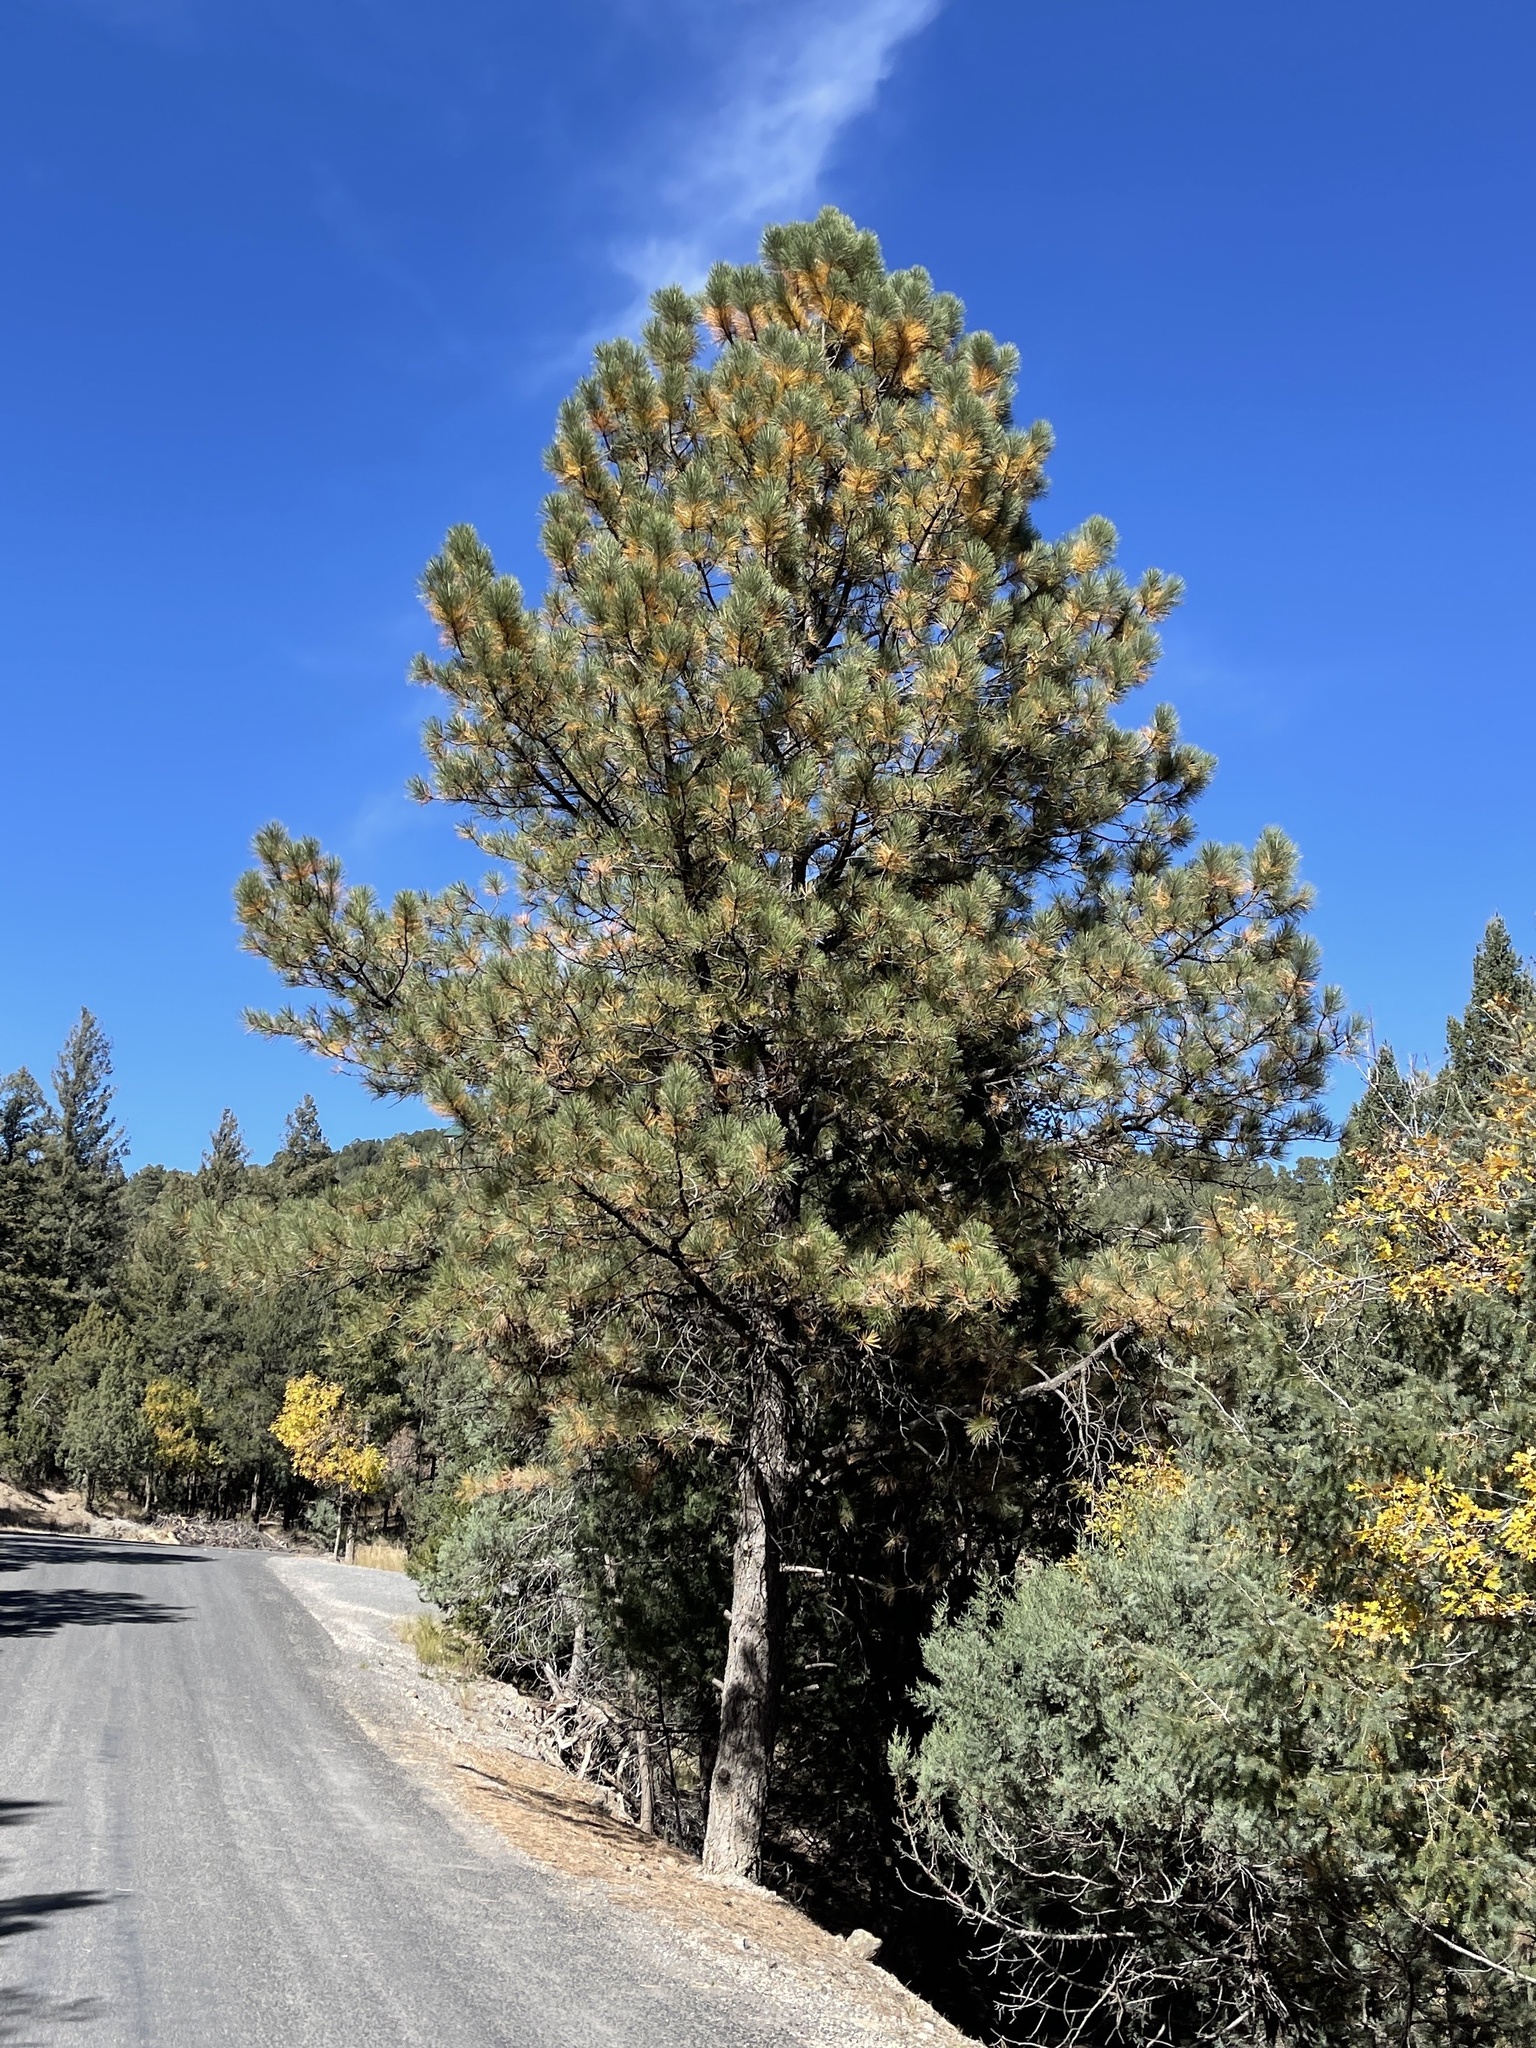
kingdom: Plantae
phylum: Tracheophyta
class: Pinopsida
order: Pinales
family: Pinaceae
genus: Pinus
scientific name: Pinus ponderosa
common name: Western yellow-pine
